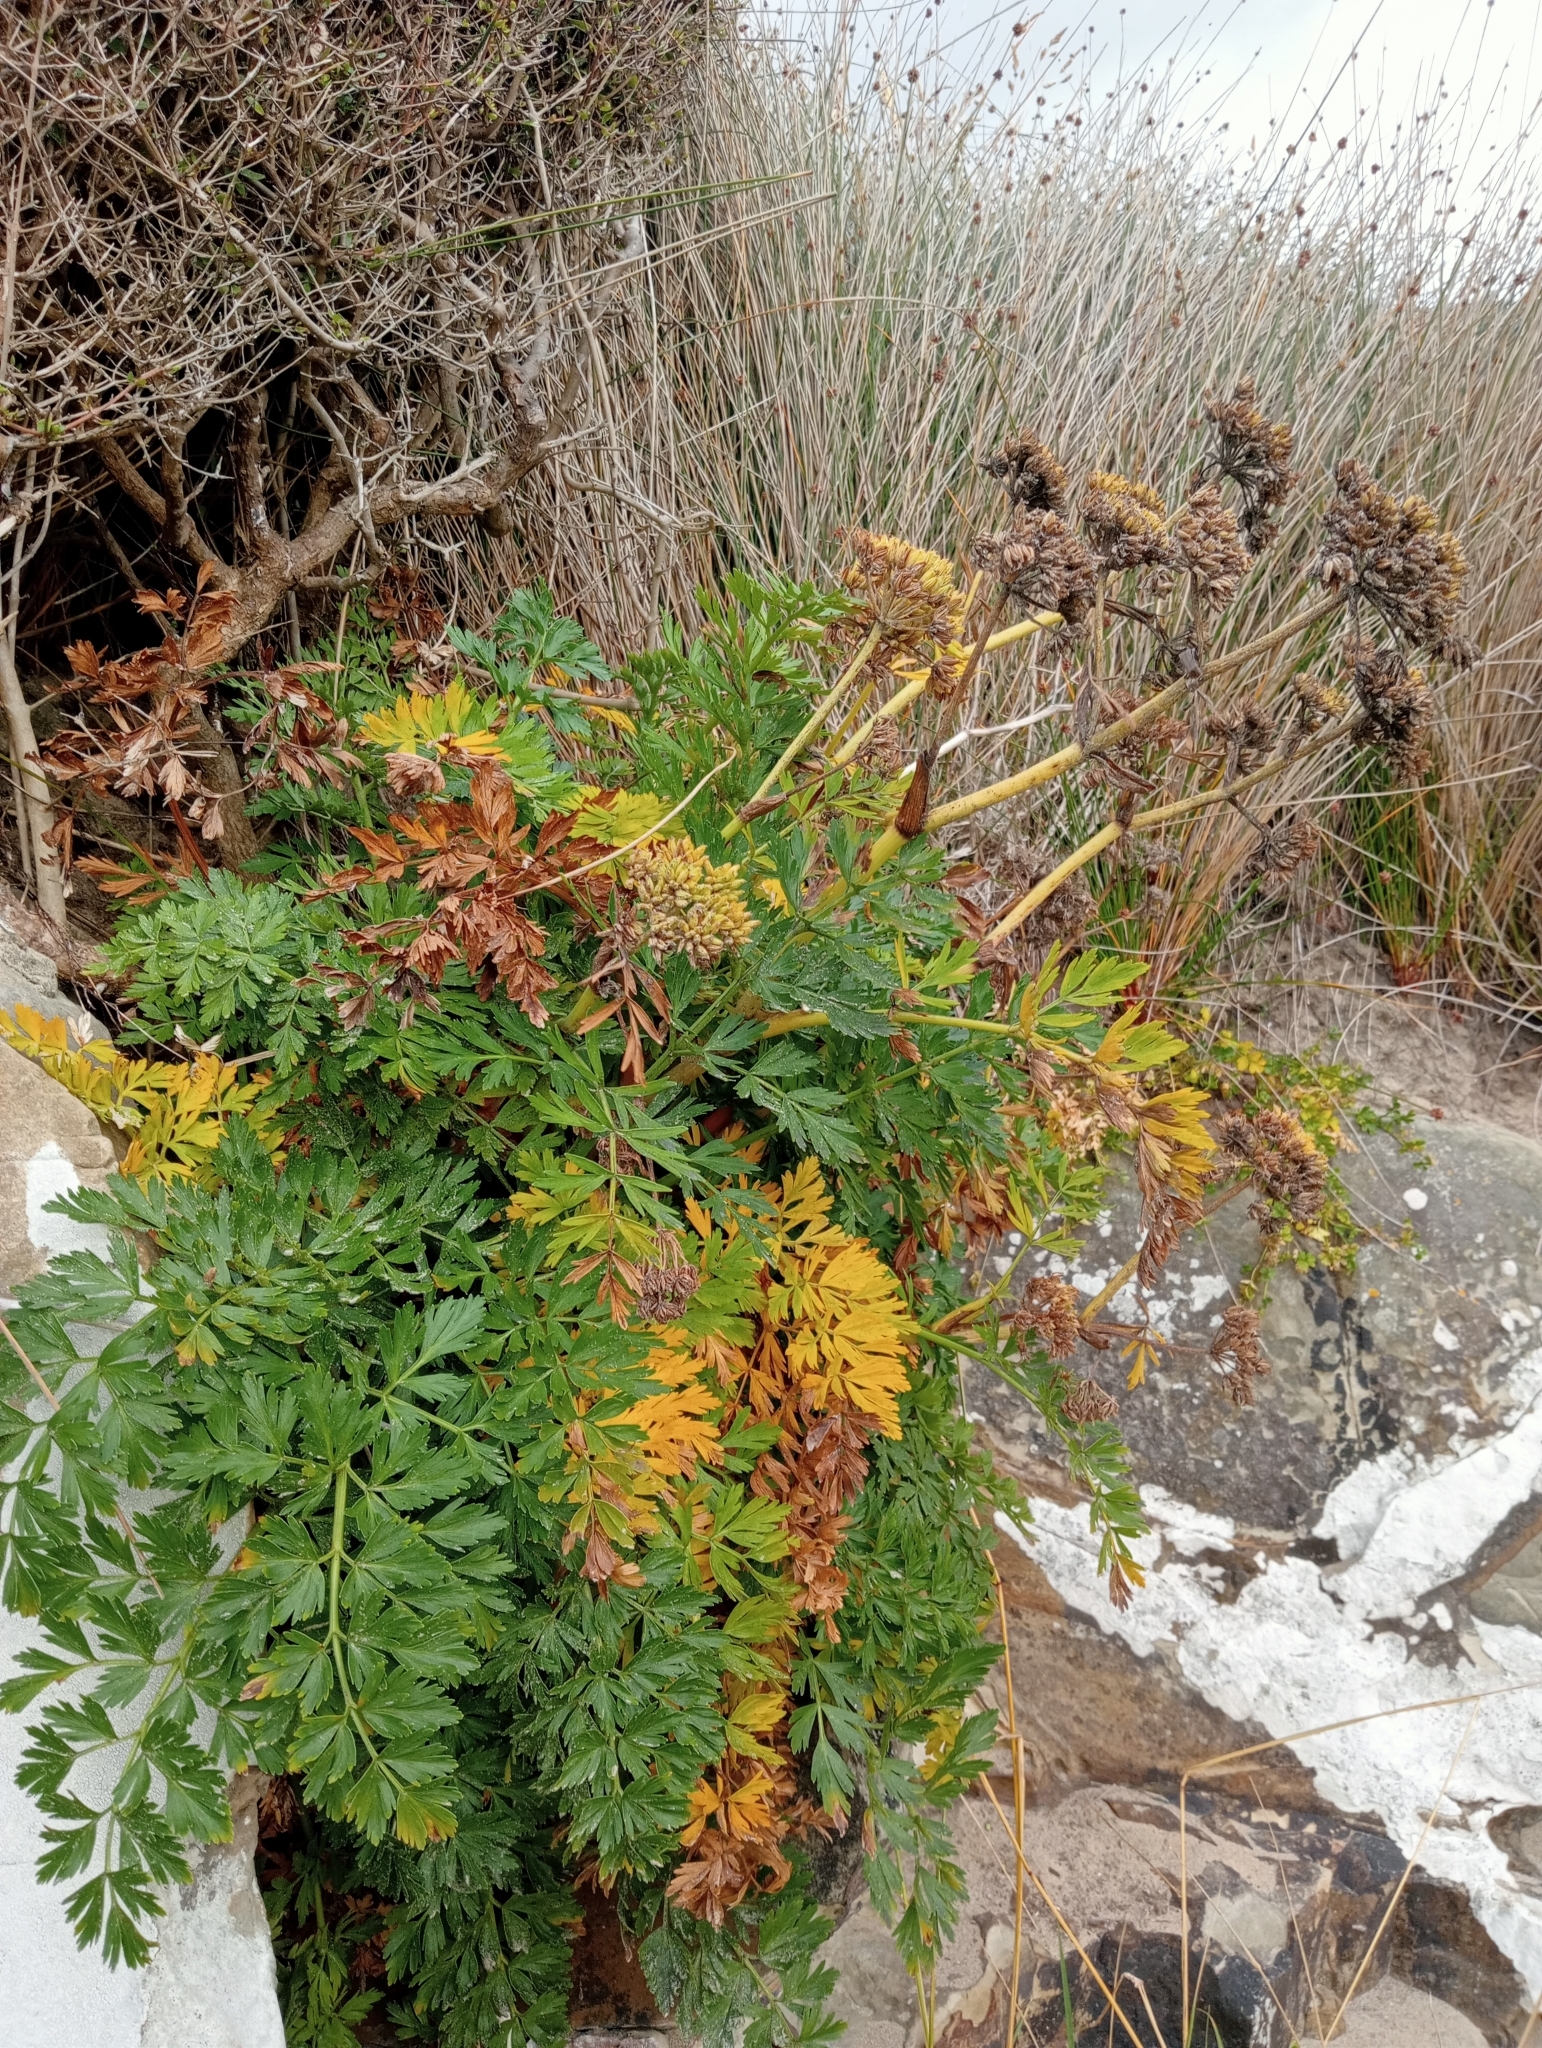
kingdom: Plantae
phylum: Tracheophyta
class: Magnoliopsida
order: Apiales
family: Apiaceae
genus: Anisotome
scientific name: Anisotome lyallii
